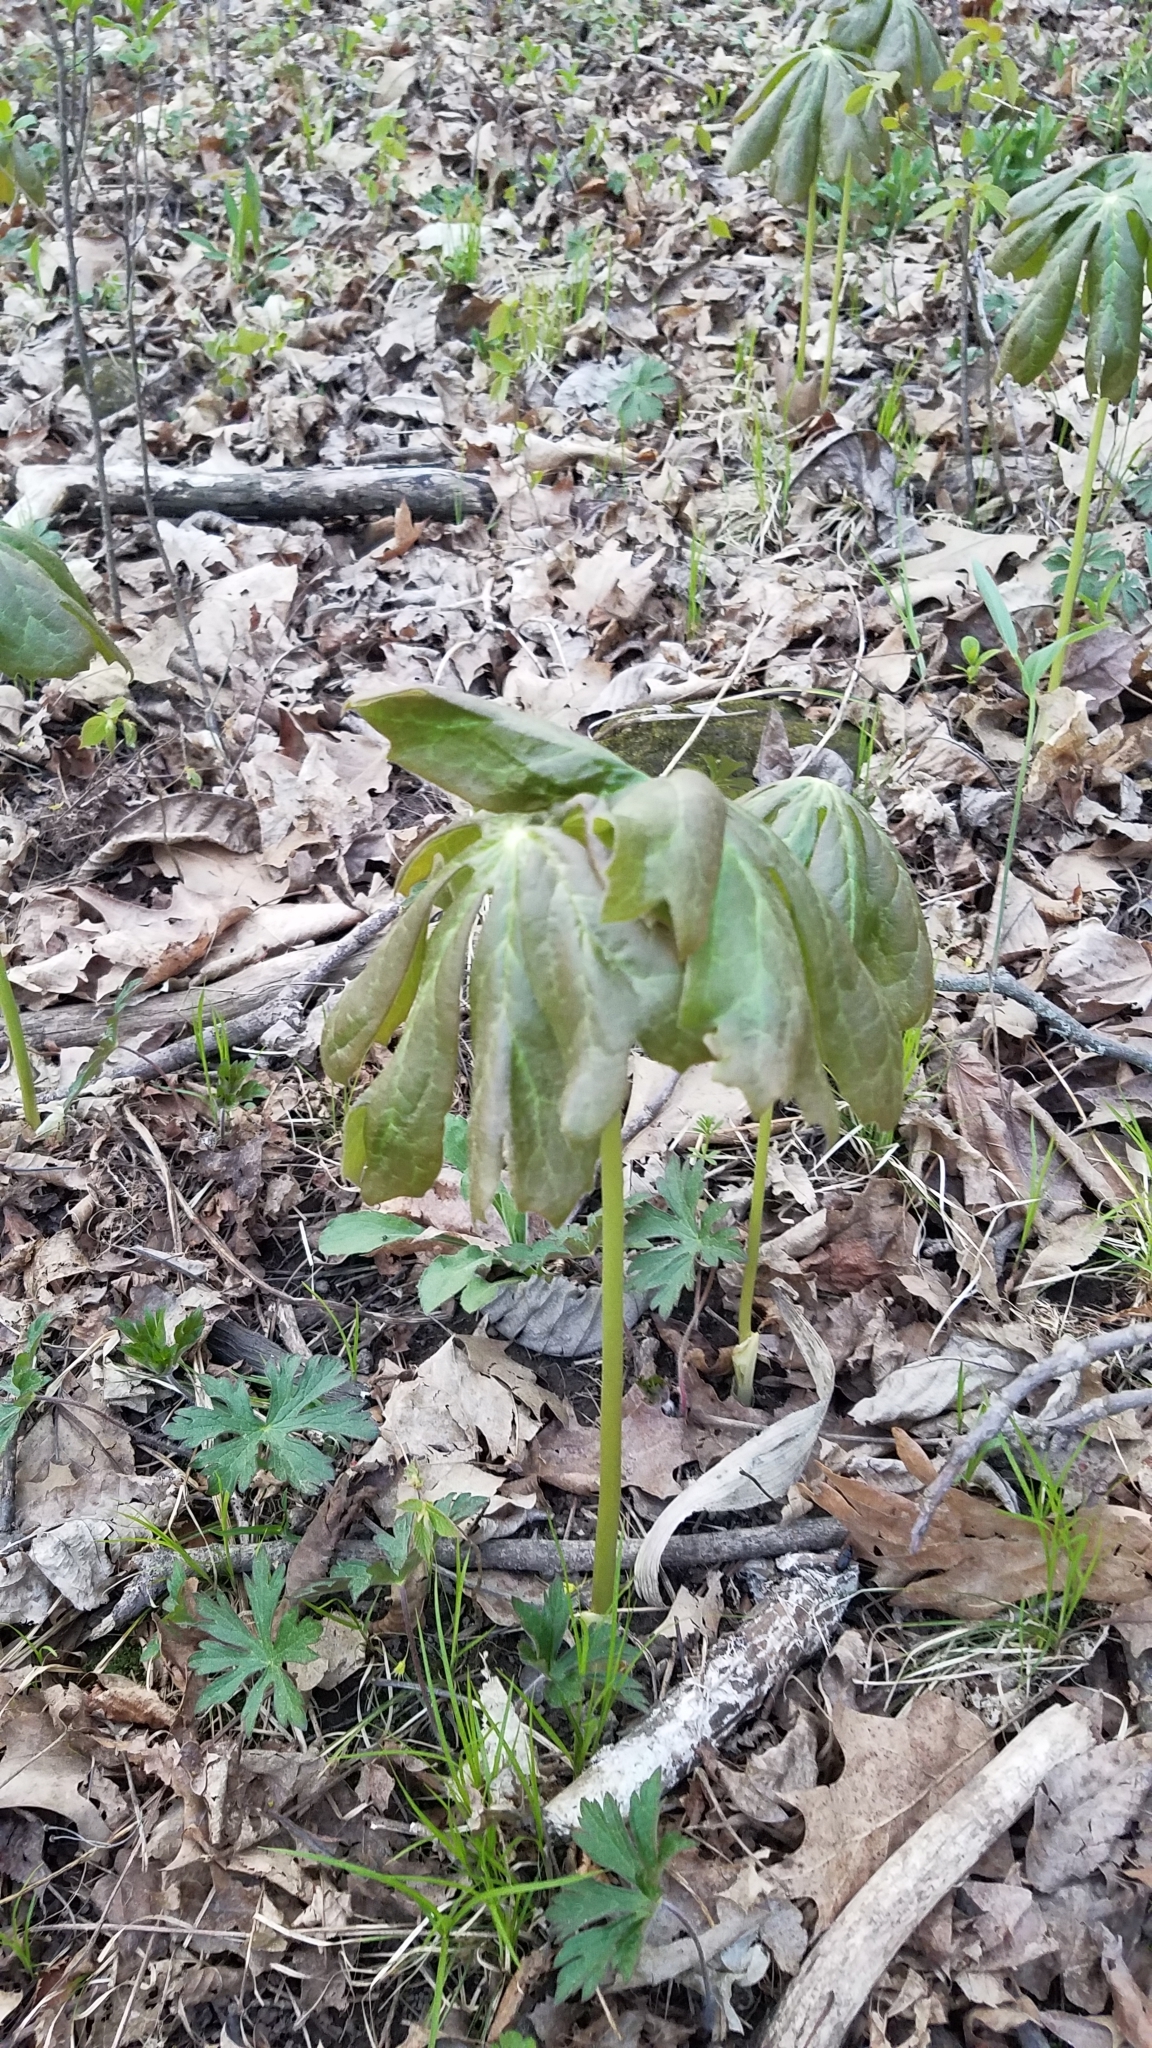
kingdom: Plantae
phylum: Tracheophyta
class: Magnoliopsida
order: Ranunculales
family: Berberidaceae
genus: Podophyllum
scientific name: Podophyllum peltatum
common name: Wild mandrake
